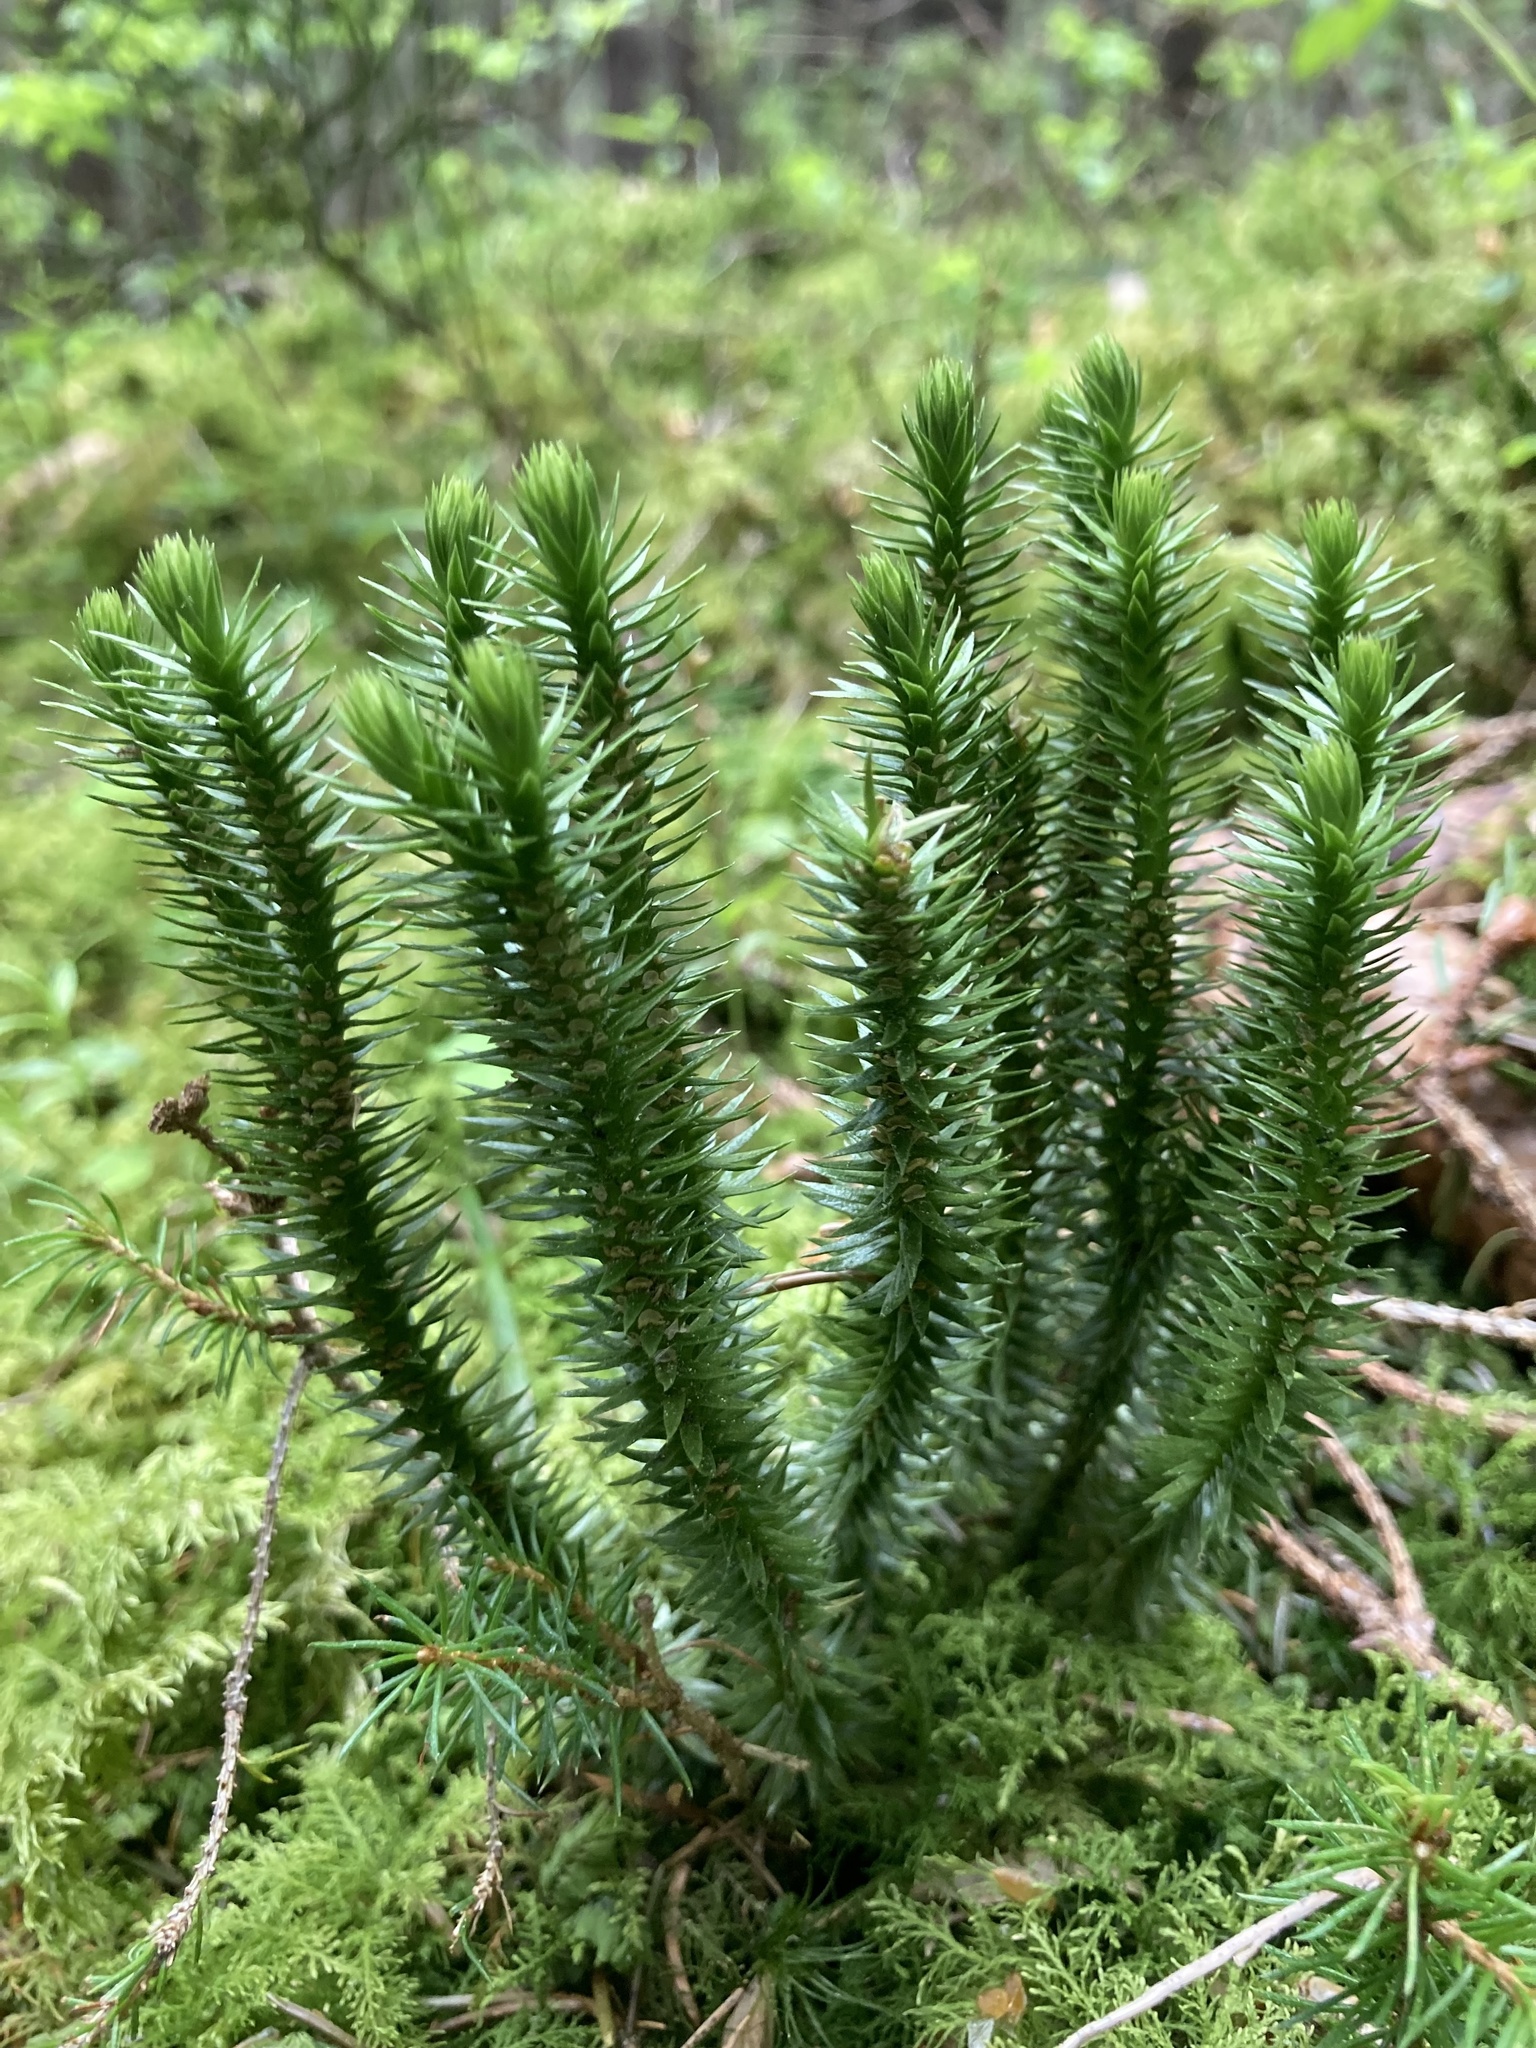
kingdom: Plantae
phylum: Tracheophyta
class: Lycopodiopsida
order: Lycopodiales
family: Lycopodiaceae
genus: Huperzia
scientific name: Huperzia selago
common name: Northern firmoss
